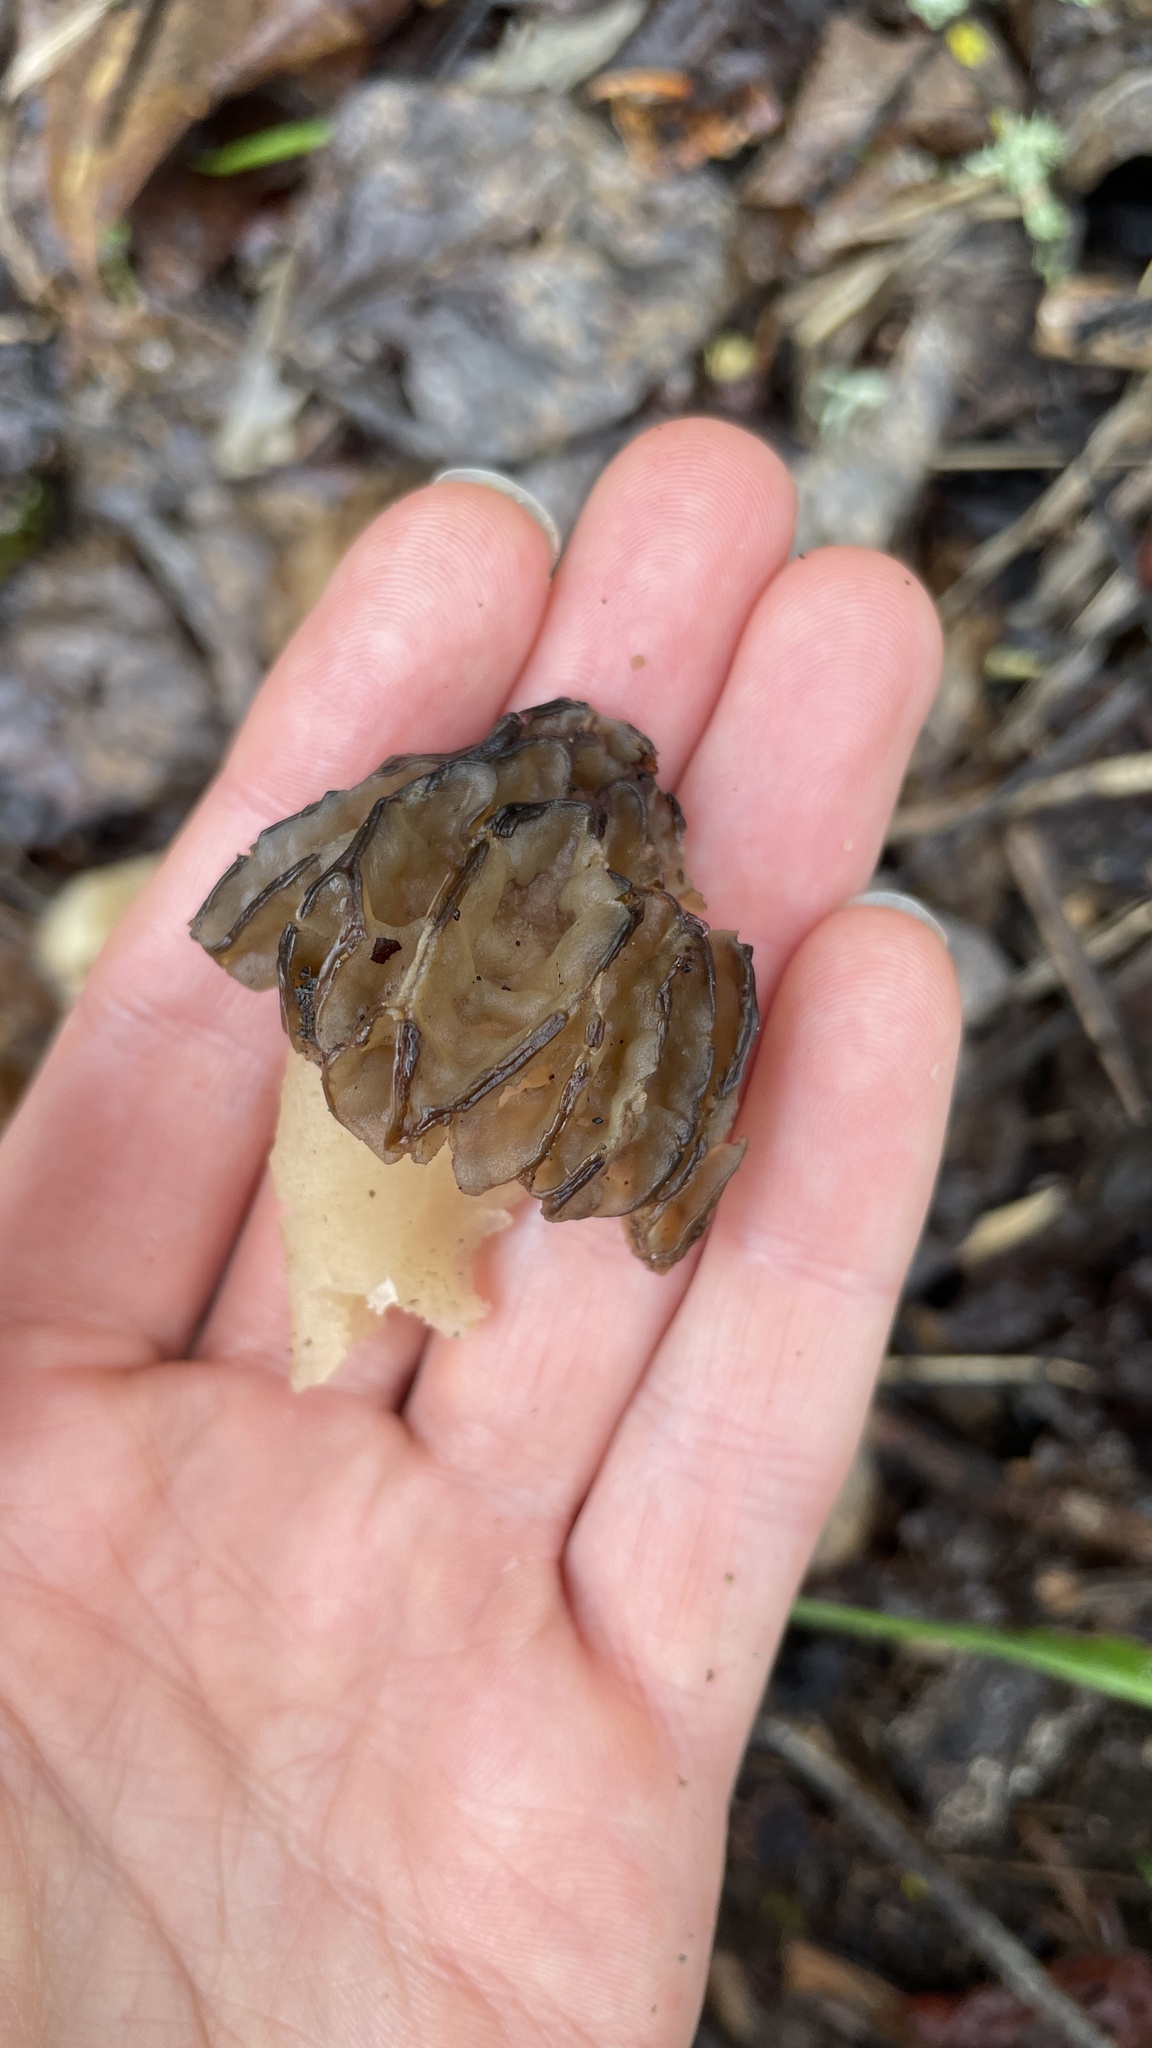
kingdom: Fungi
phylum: Ascomycota
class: Pezizomycetes
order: Pezizales
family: Morchellaceae
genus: Morchella
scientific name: Morchella populiphila
